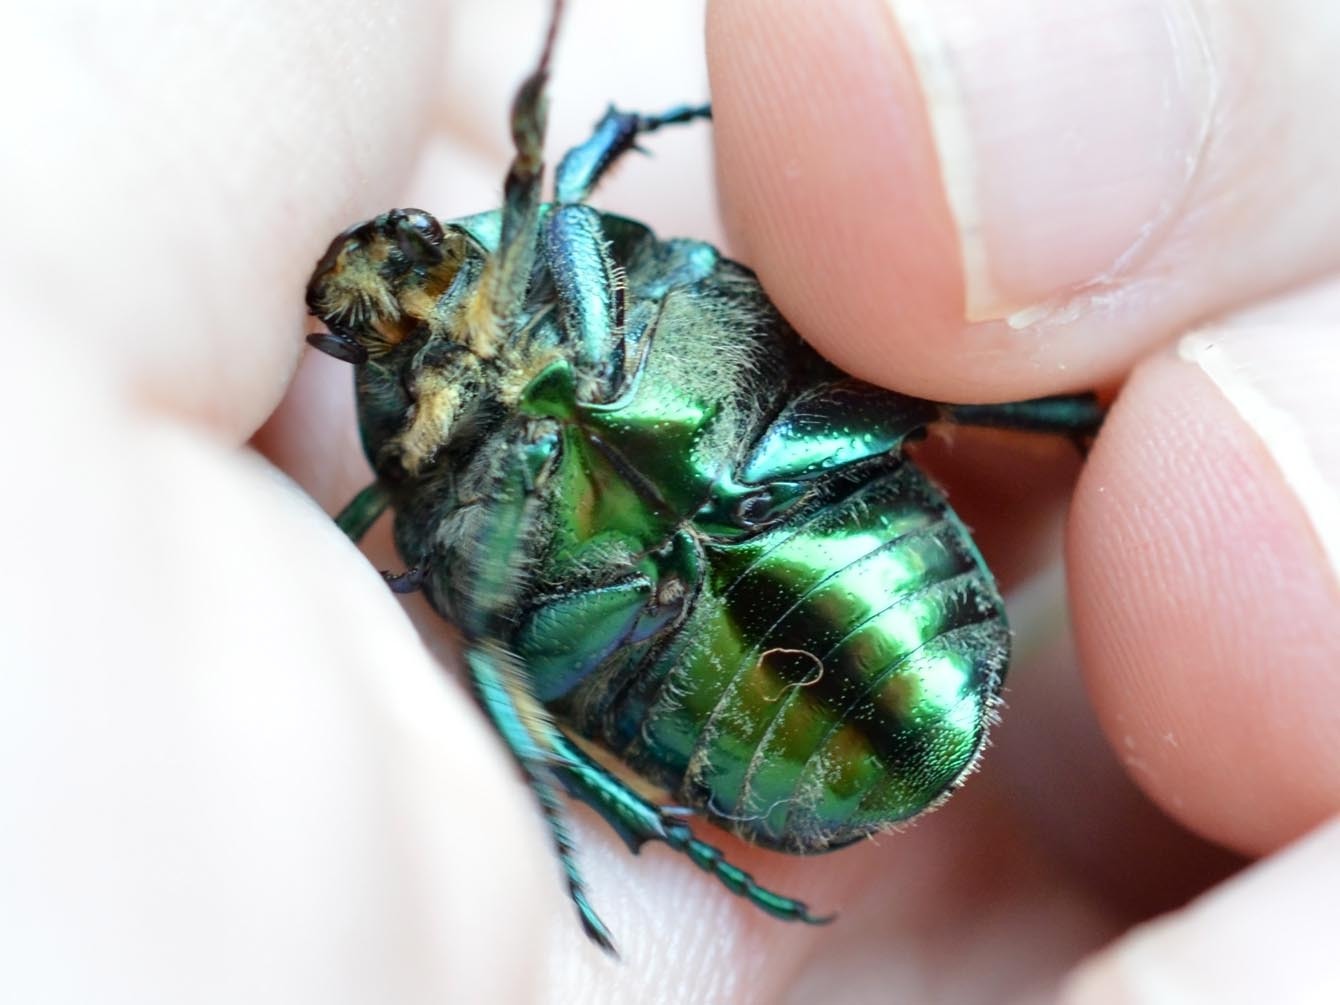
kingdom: Animalia
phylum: Arthropoda
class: Insecta
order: Coleoptera
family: Scarabaeidae
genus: Protaetia
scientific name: Protaetia affinis
